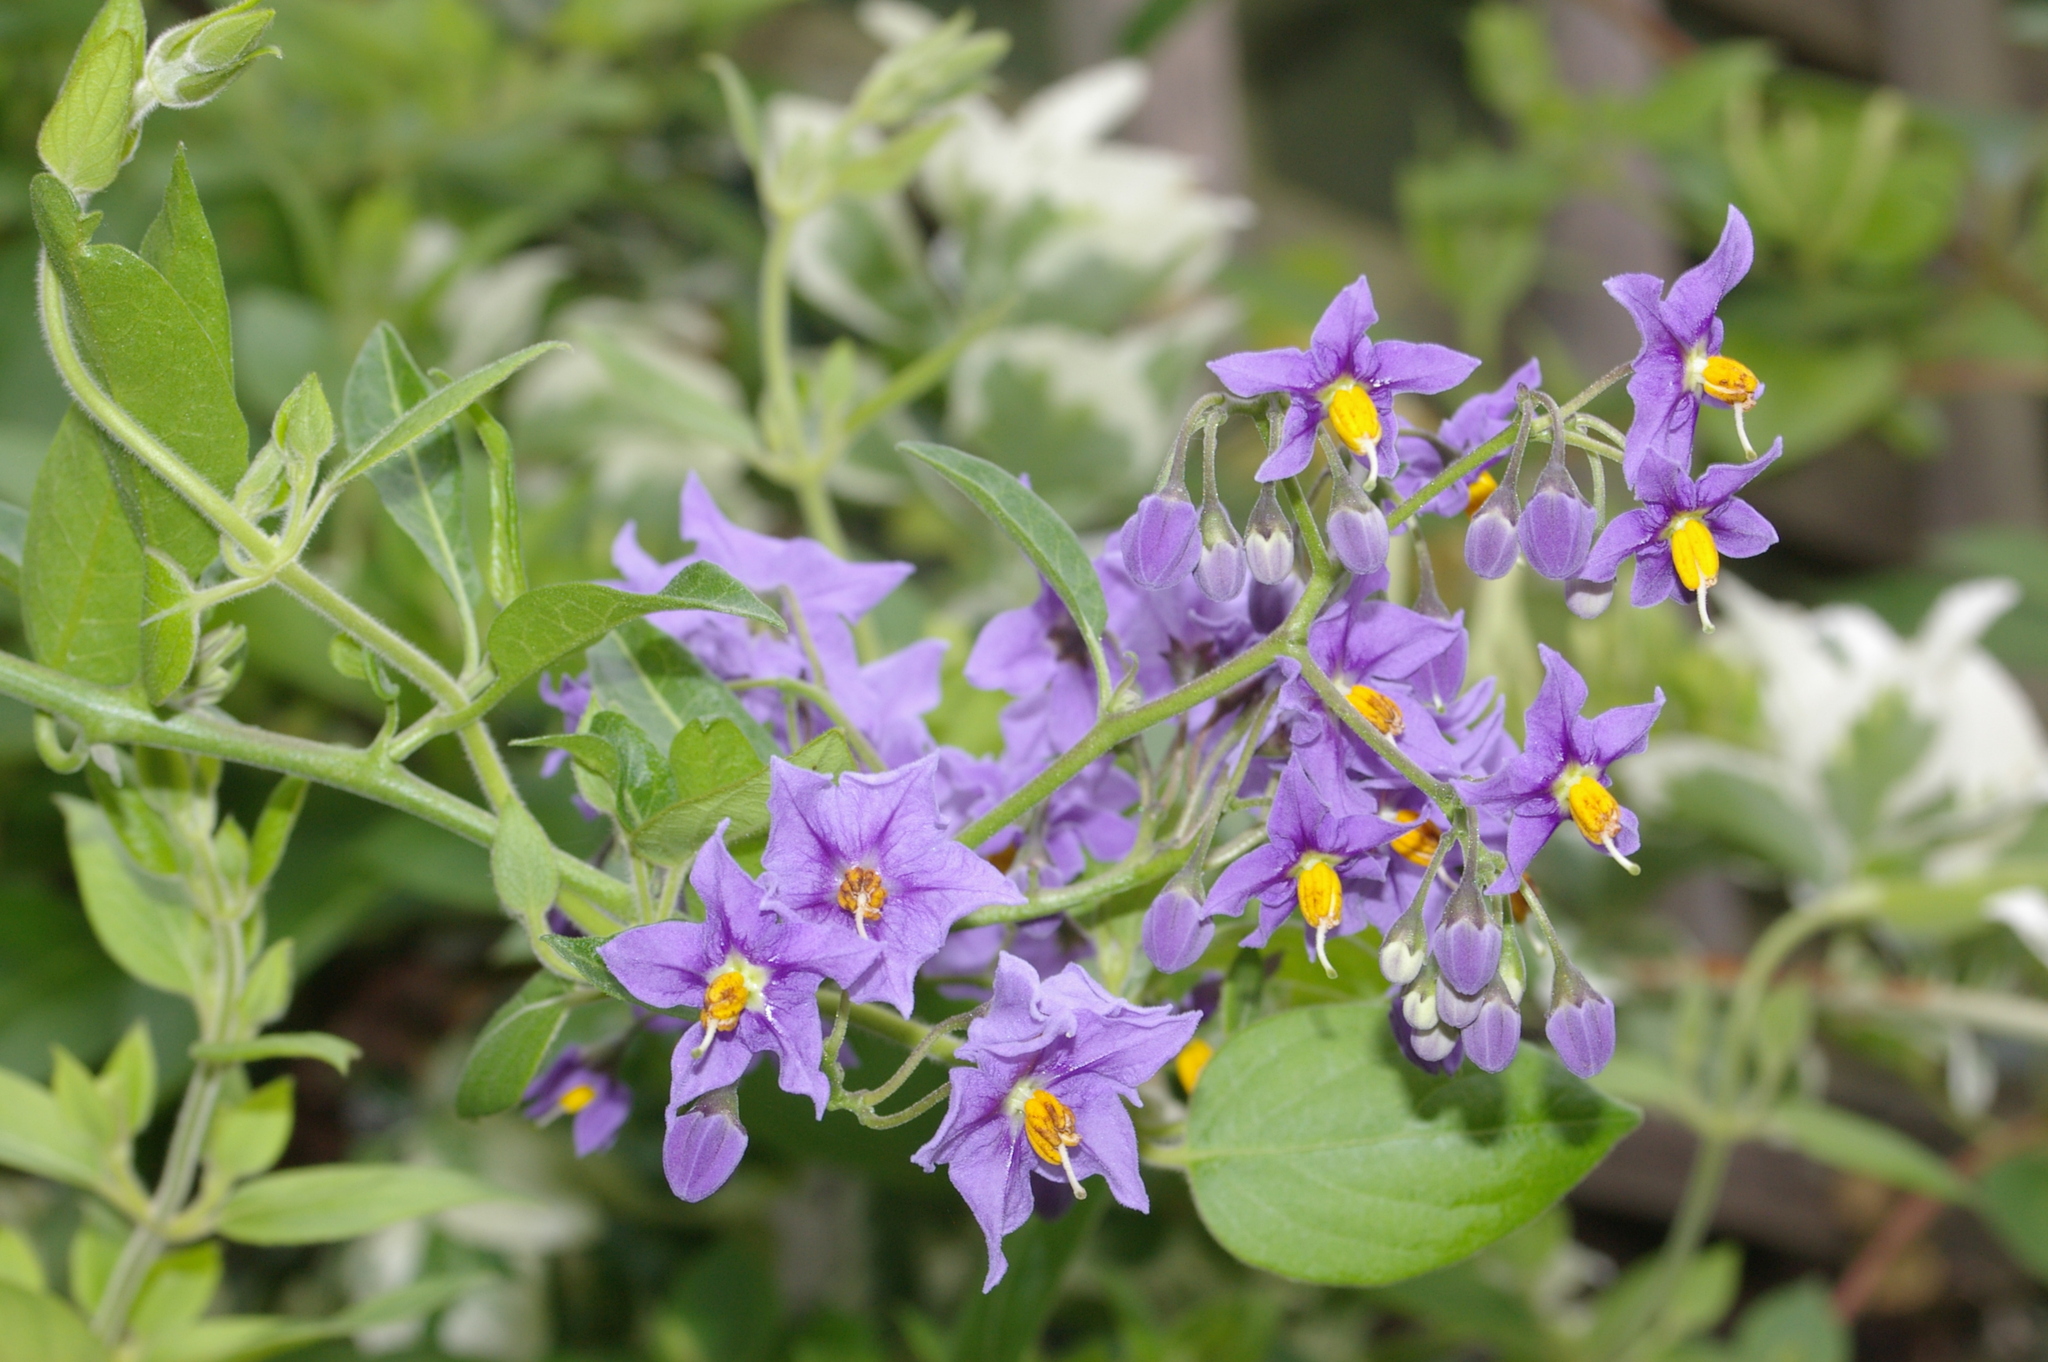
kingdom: Animalia
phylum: Arthropoda
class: Insecta
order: Lepidoptera
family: Glyphipterigidae
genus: Acrolepia
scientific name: Acrolepia pygmaeana
